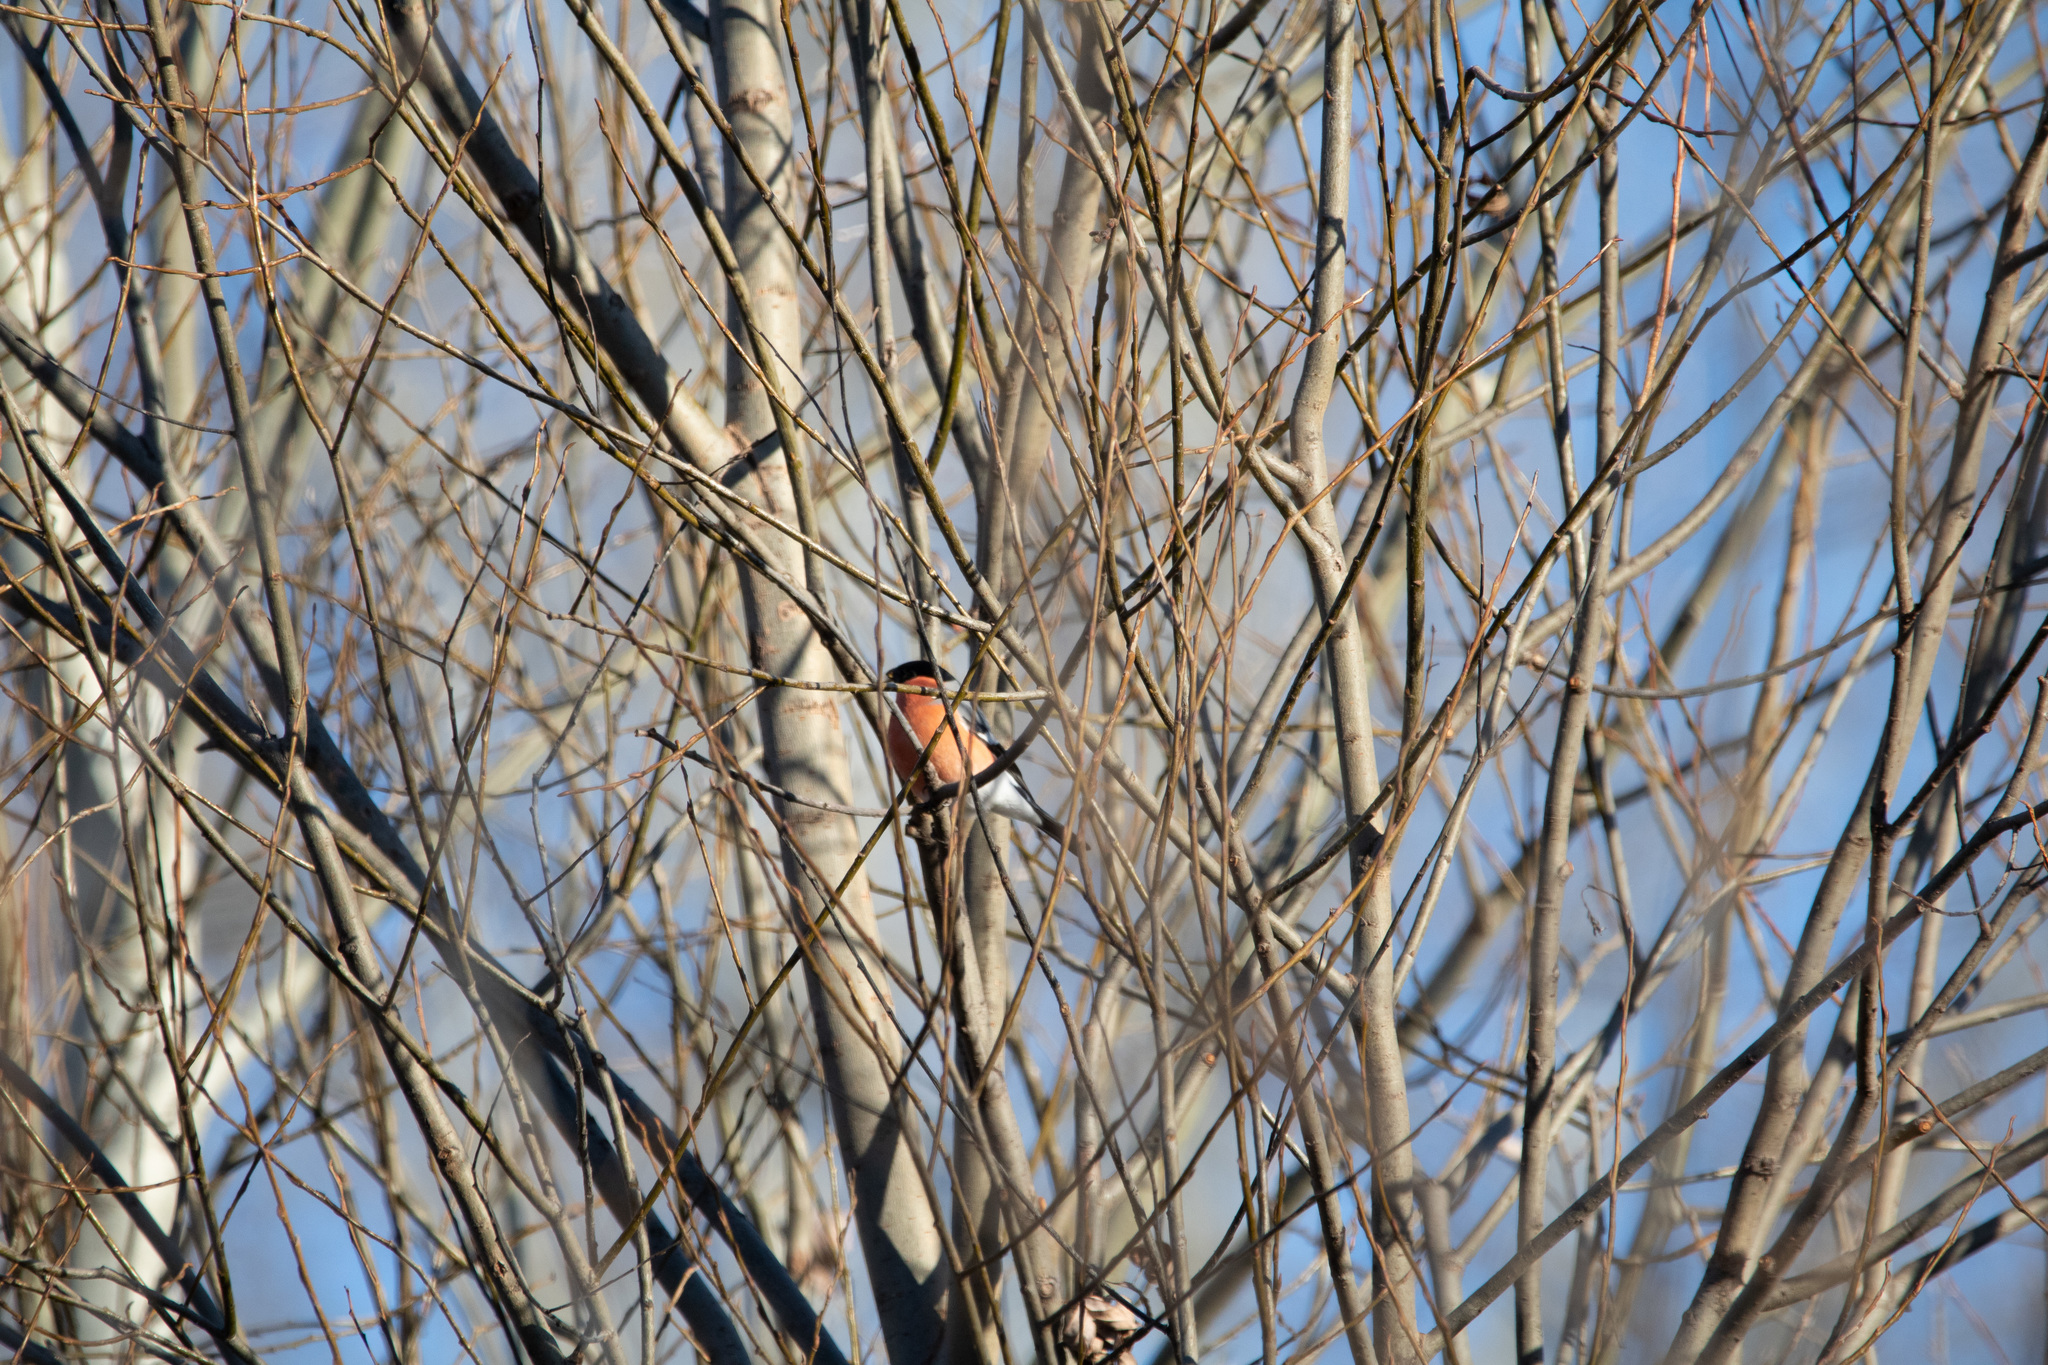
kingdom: Animalia
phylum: Chordata
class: Aves
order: Passeriformes
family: Fringillidae
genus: Pyrrhula
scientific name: Pyrrhula pyrrhula
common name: Eurasian bullfinch
